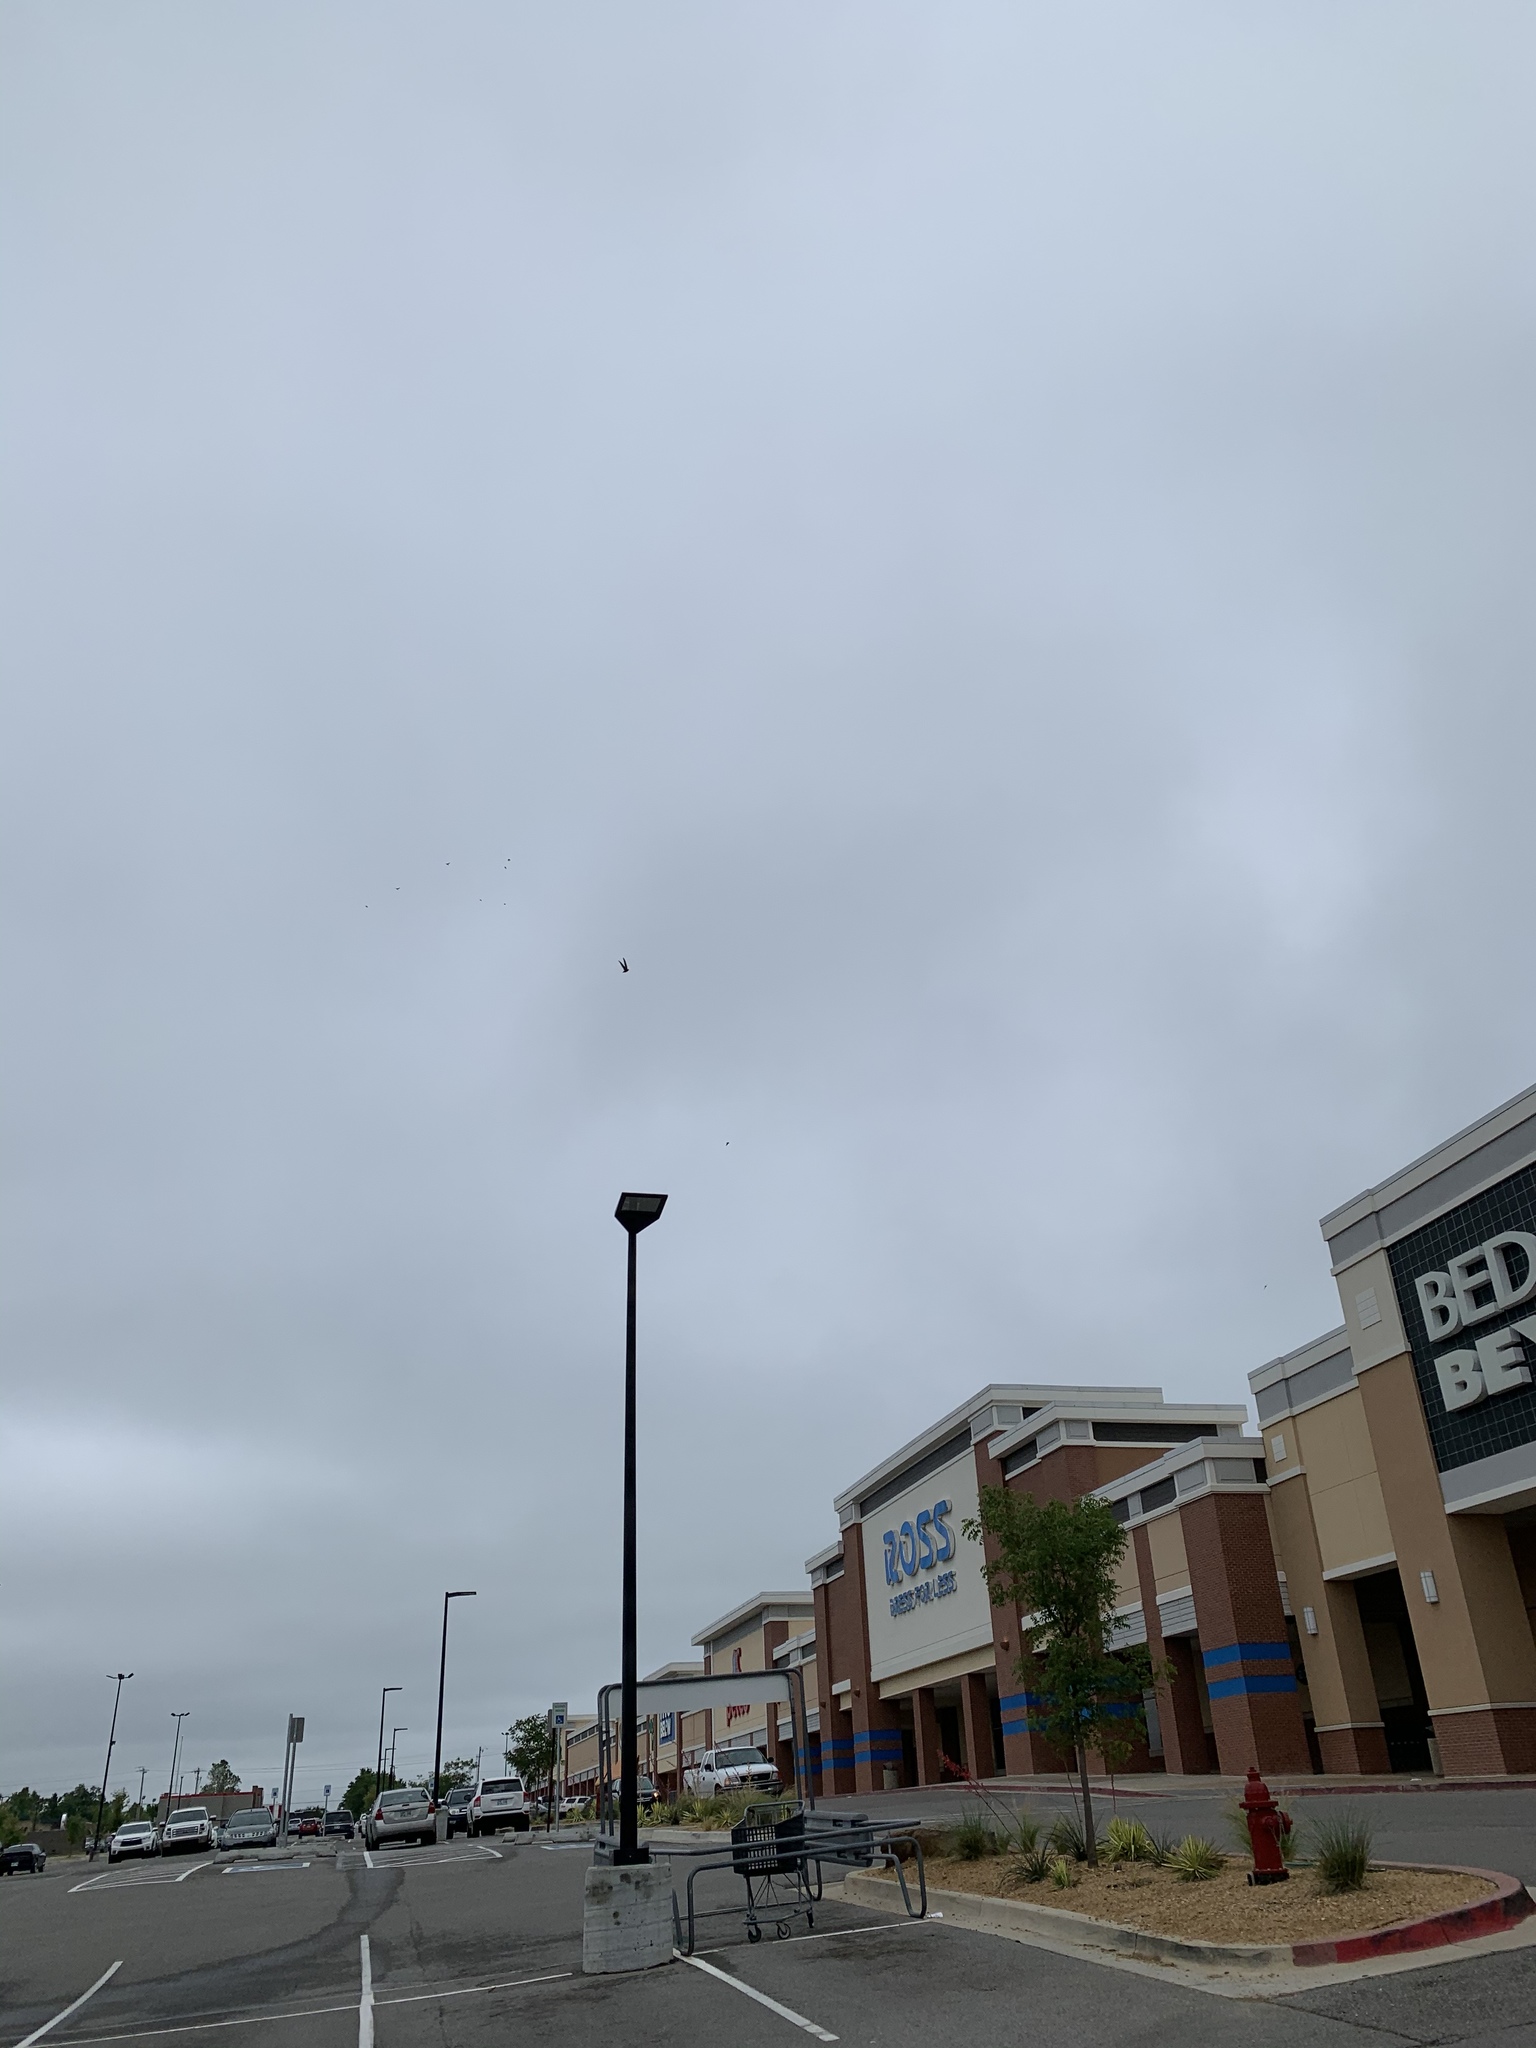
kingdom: Animalia
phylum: Chordata
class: Aves
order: Apodiformes
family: Apodidae
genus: Chaetura
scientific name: Chaetura pelagica
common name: Chimney swift
